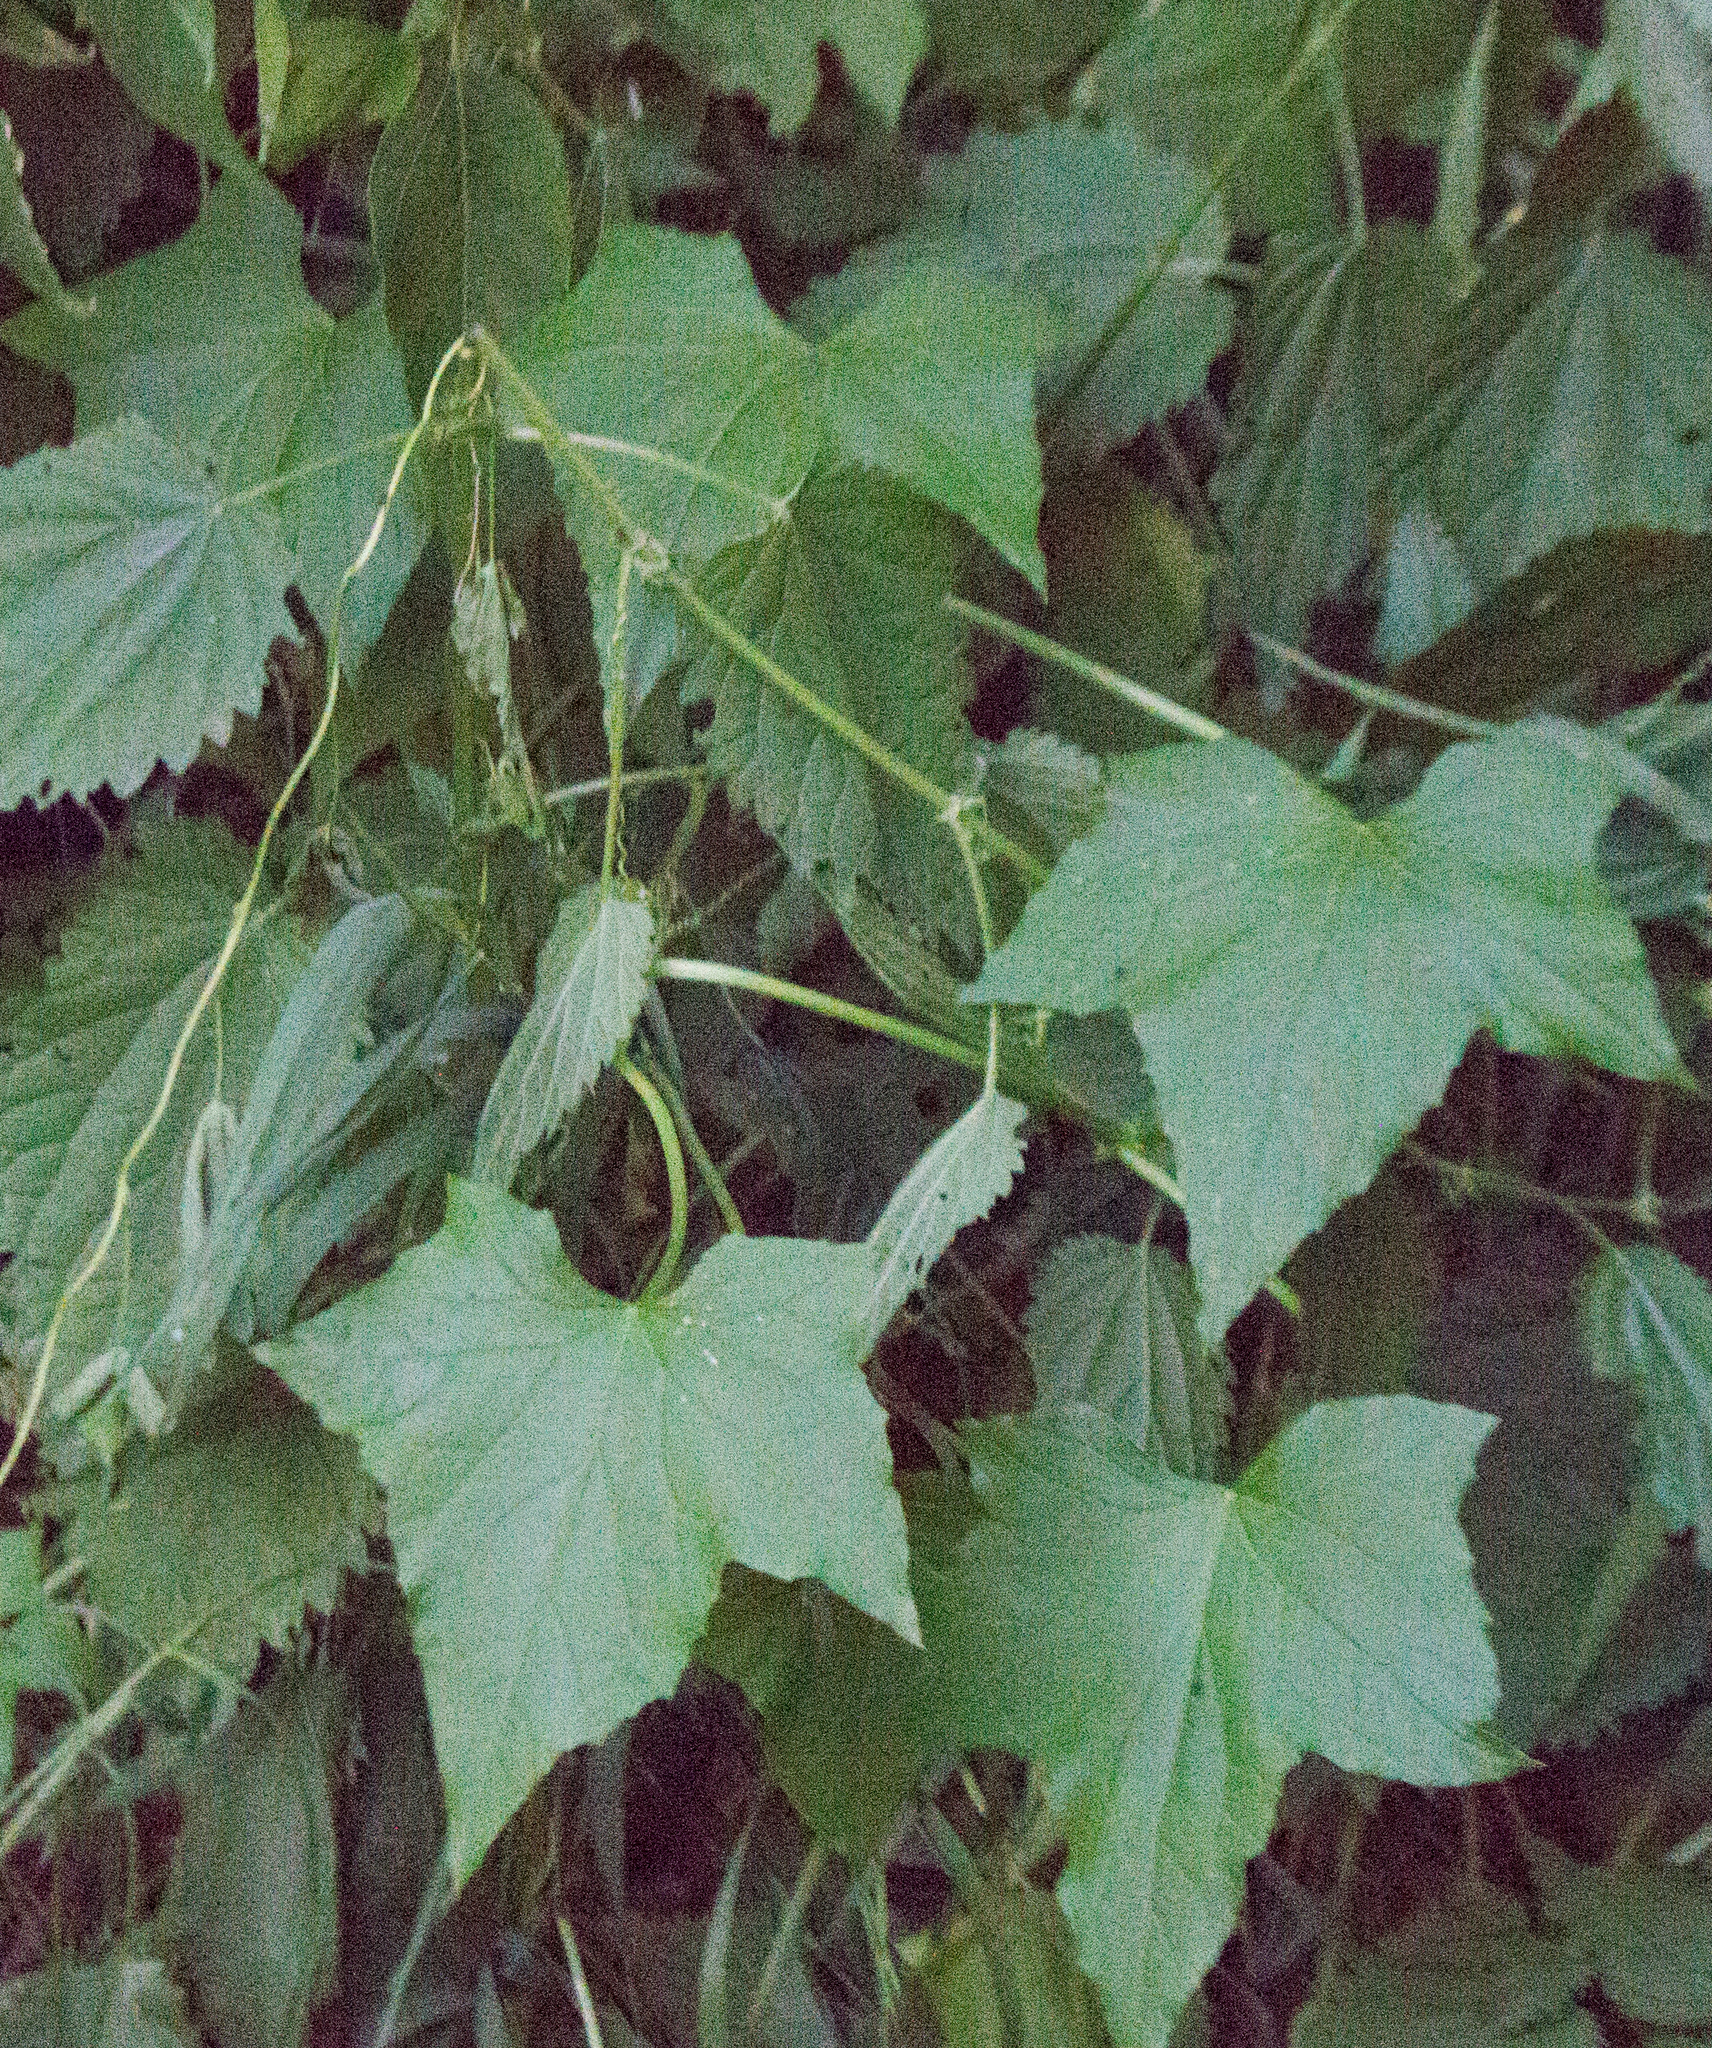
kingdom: Plantae
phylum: Tracheophyta
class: Magnoliopsida
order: Cucurbitales
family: Cucurbitaceae
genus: Echinocystis
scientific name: Echinocystis lobata
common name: Wild cucumber
